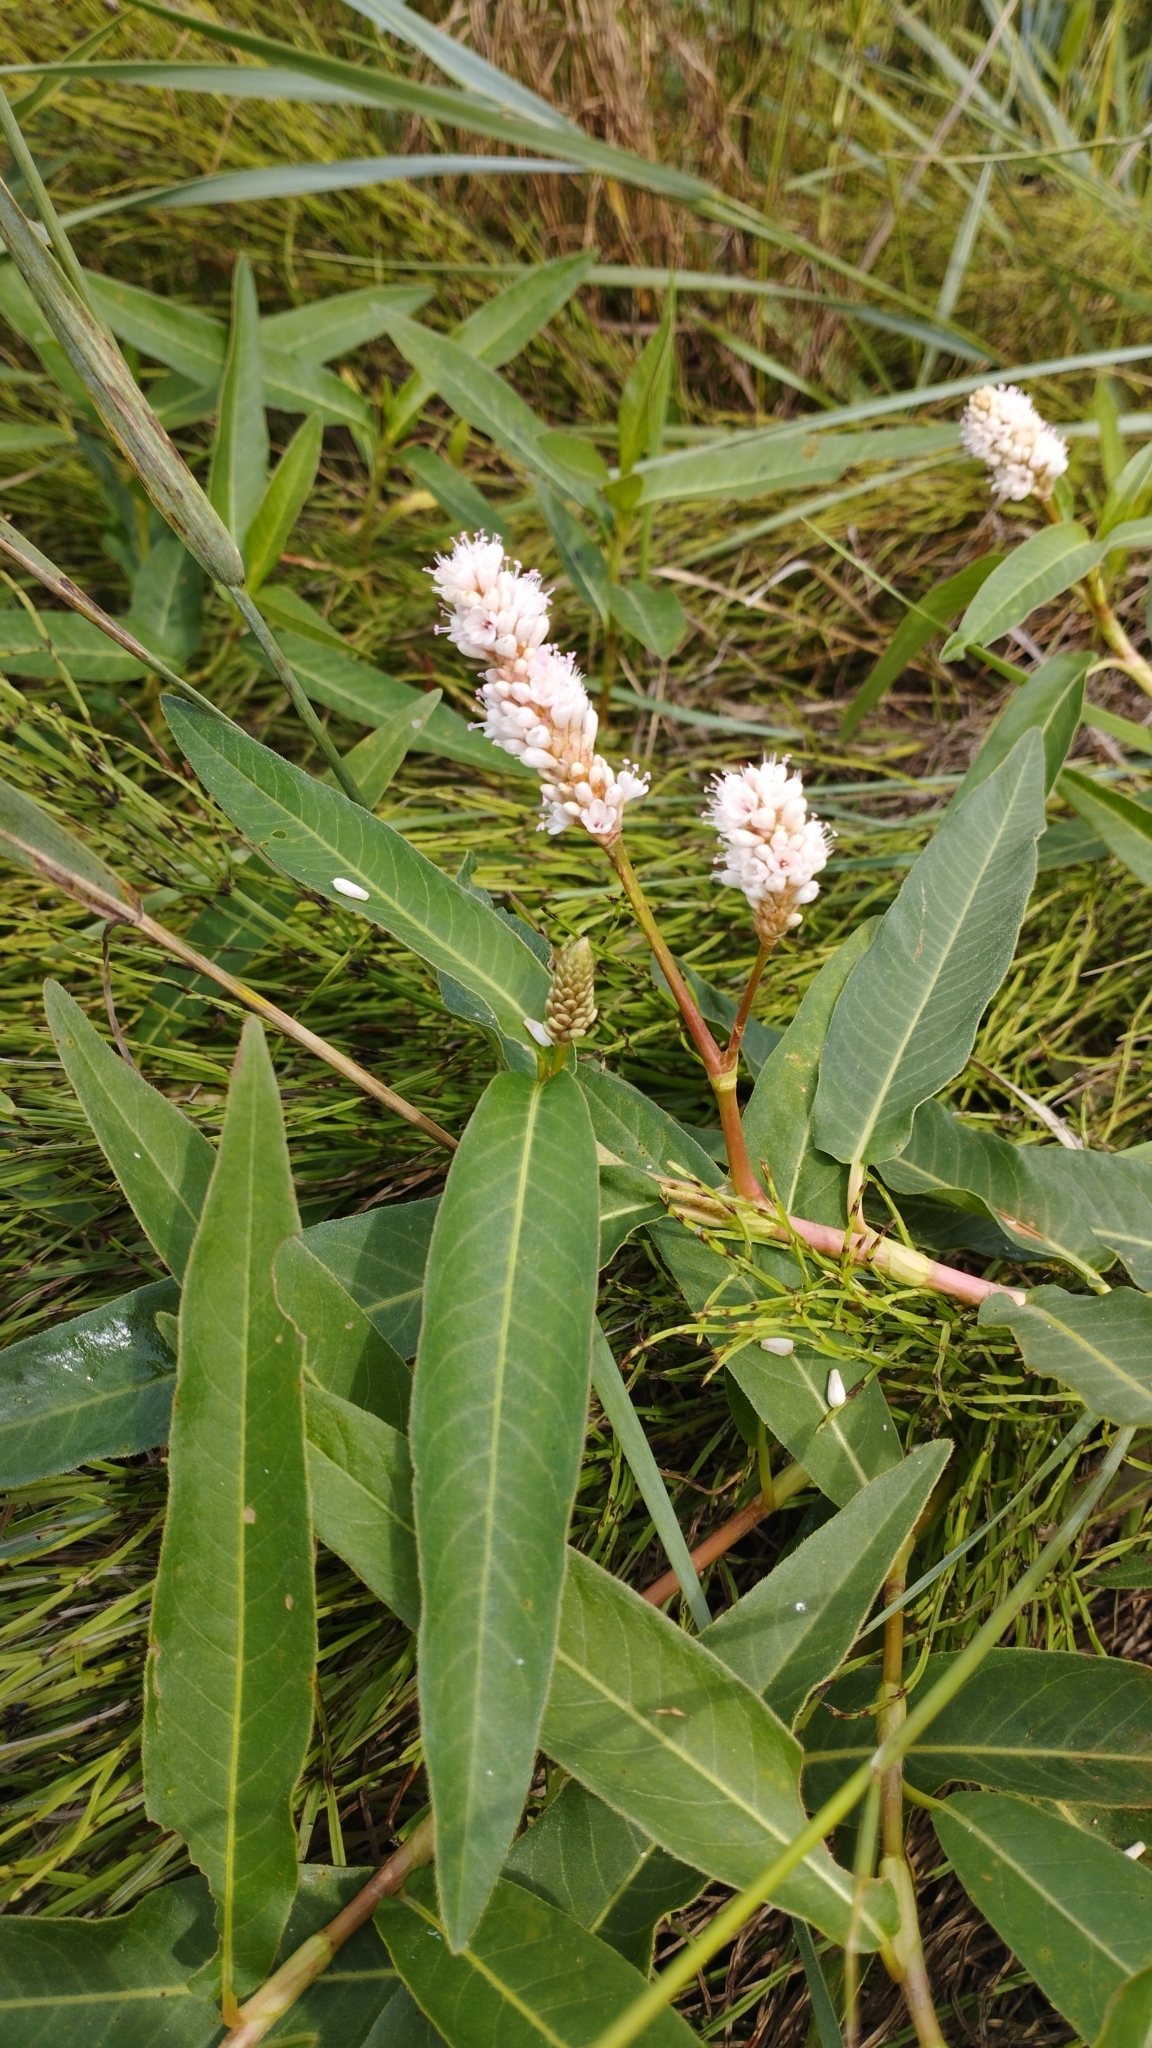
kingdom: Plantae
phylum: Tracheophyta
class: Magnoliopsida
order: Caryophyllales
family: Polygonaceae
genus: Persicaria
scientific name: Persicaria amphibia
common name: Amphibious bistort
